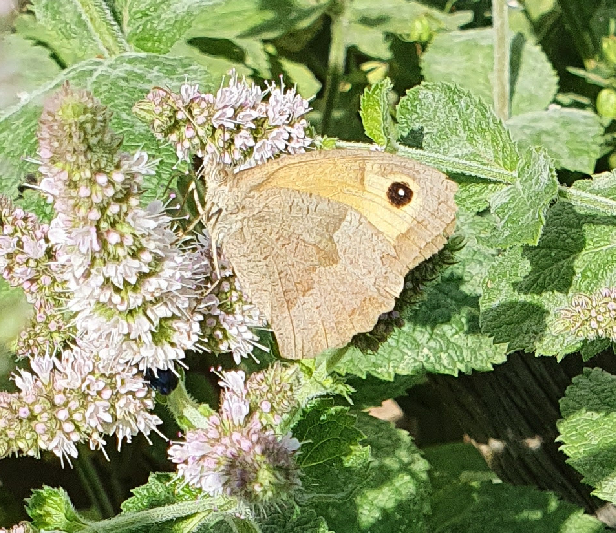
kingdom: Animalia
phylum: Arthropoda
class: Insecta
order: Lepidoptera
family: Nymphalidae
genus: Maniola
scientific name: Maniola jurtina
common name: Meadow brown
